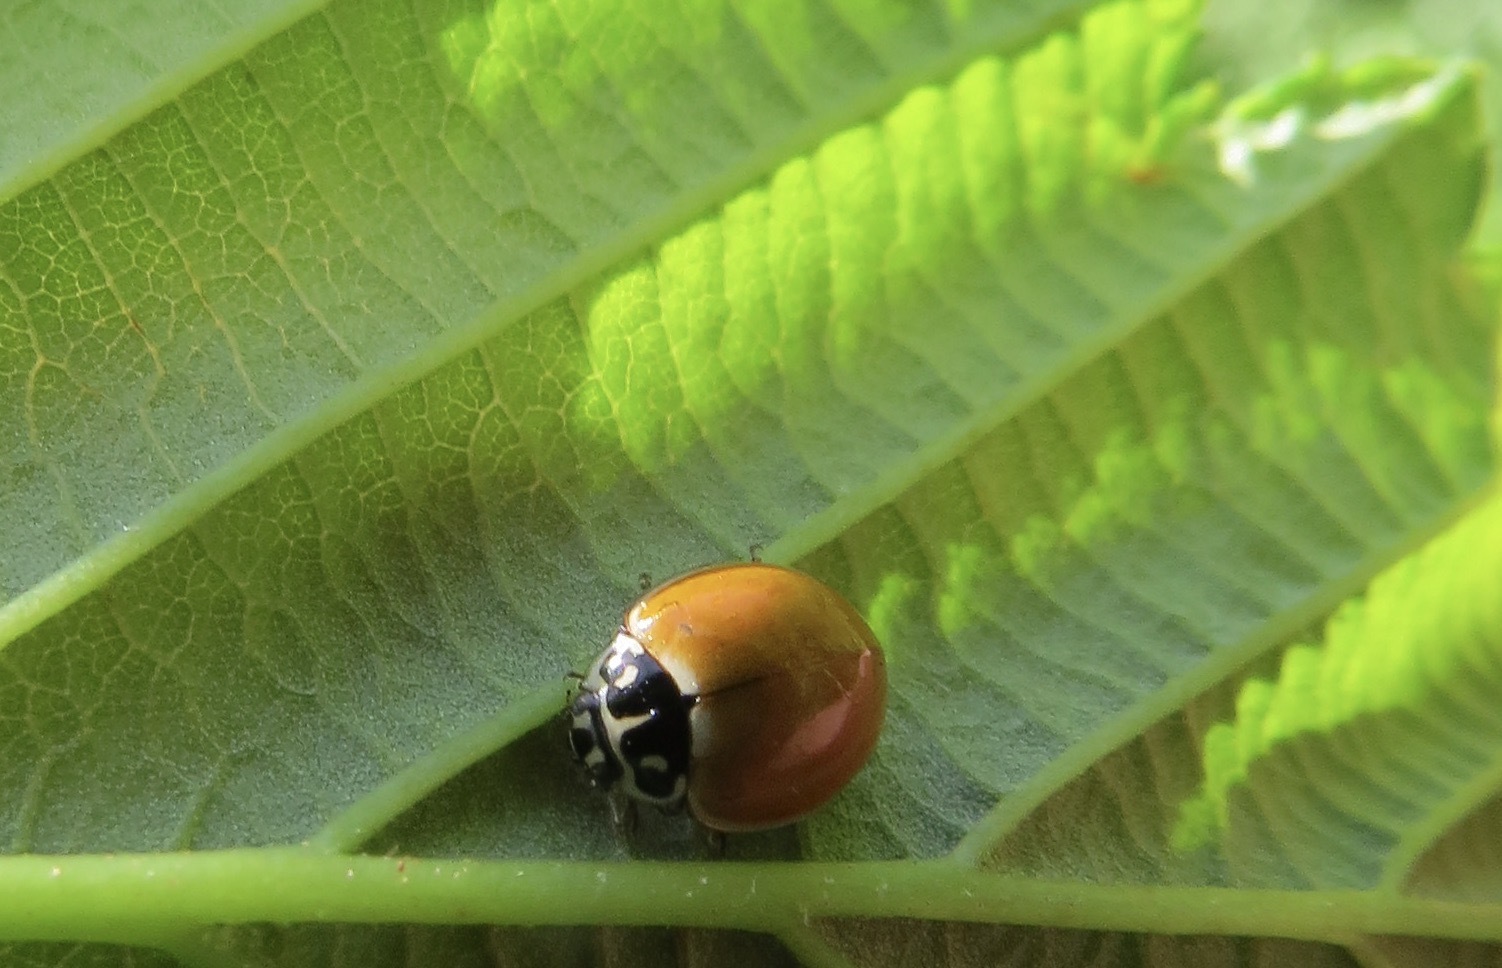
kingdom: Animalia
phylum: Arthropoda
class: Insecta
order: Coleoptera
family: Coccinellidae
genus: Cycloneda
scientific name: Cycloneda polita
